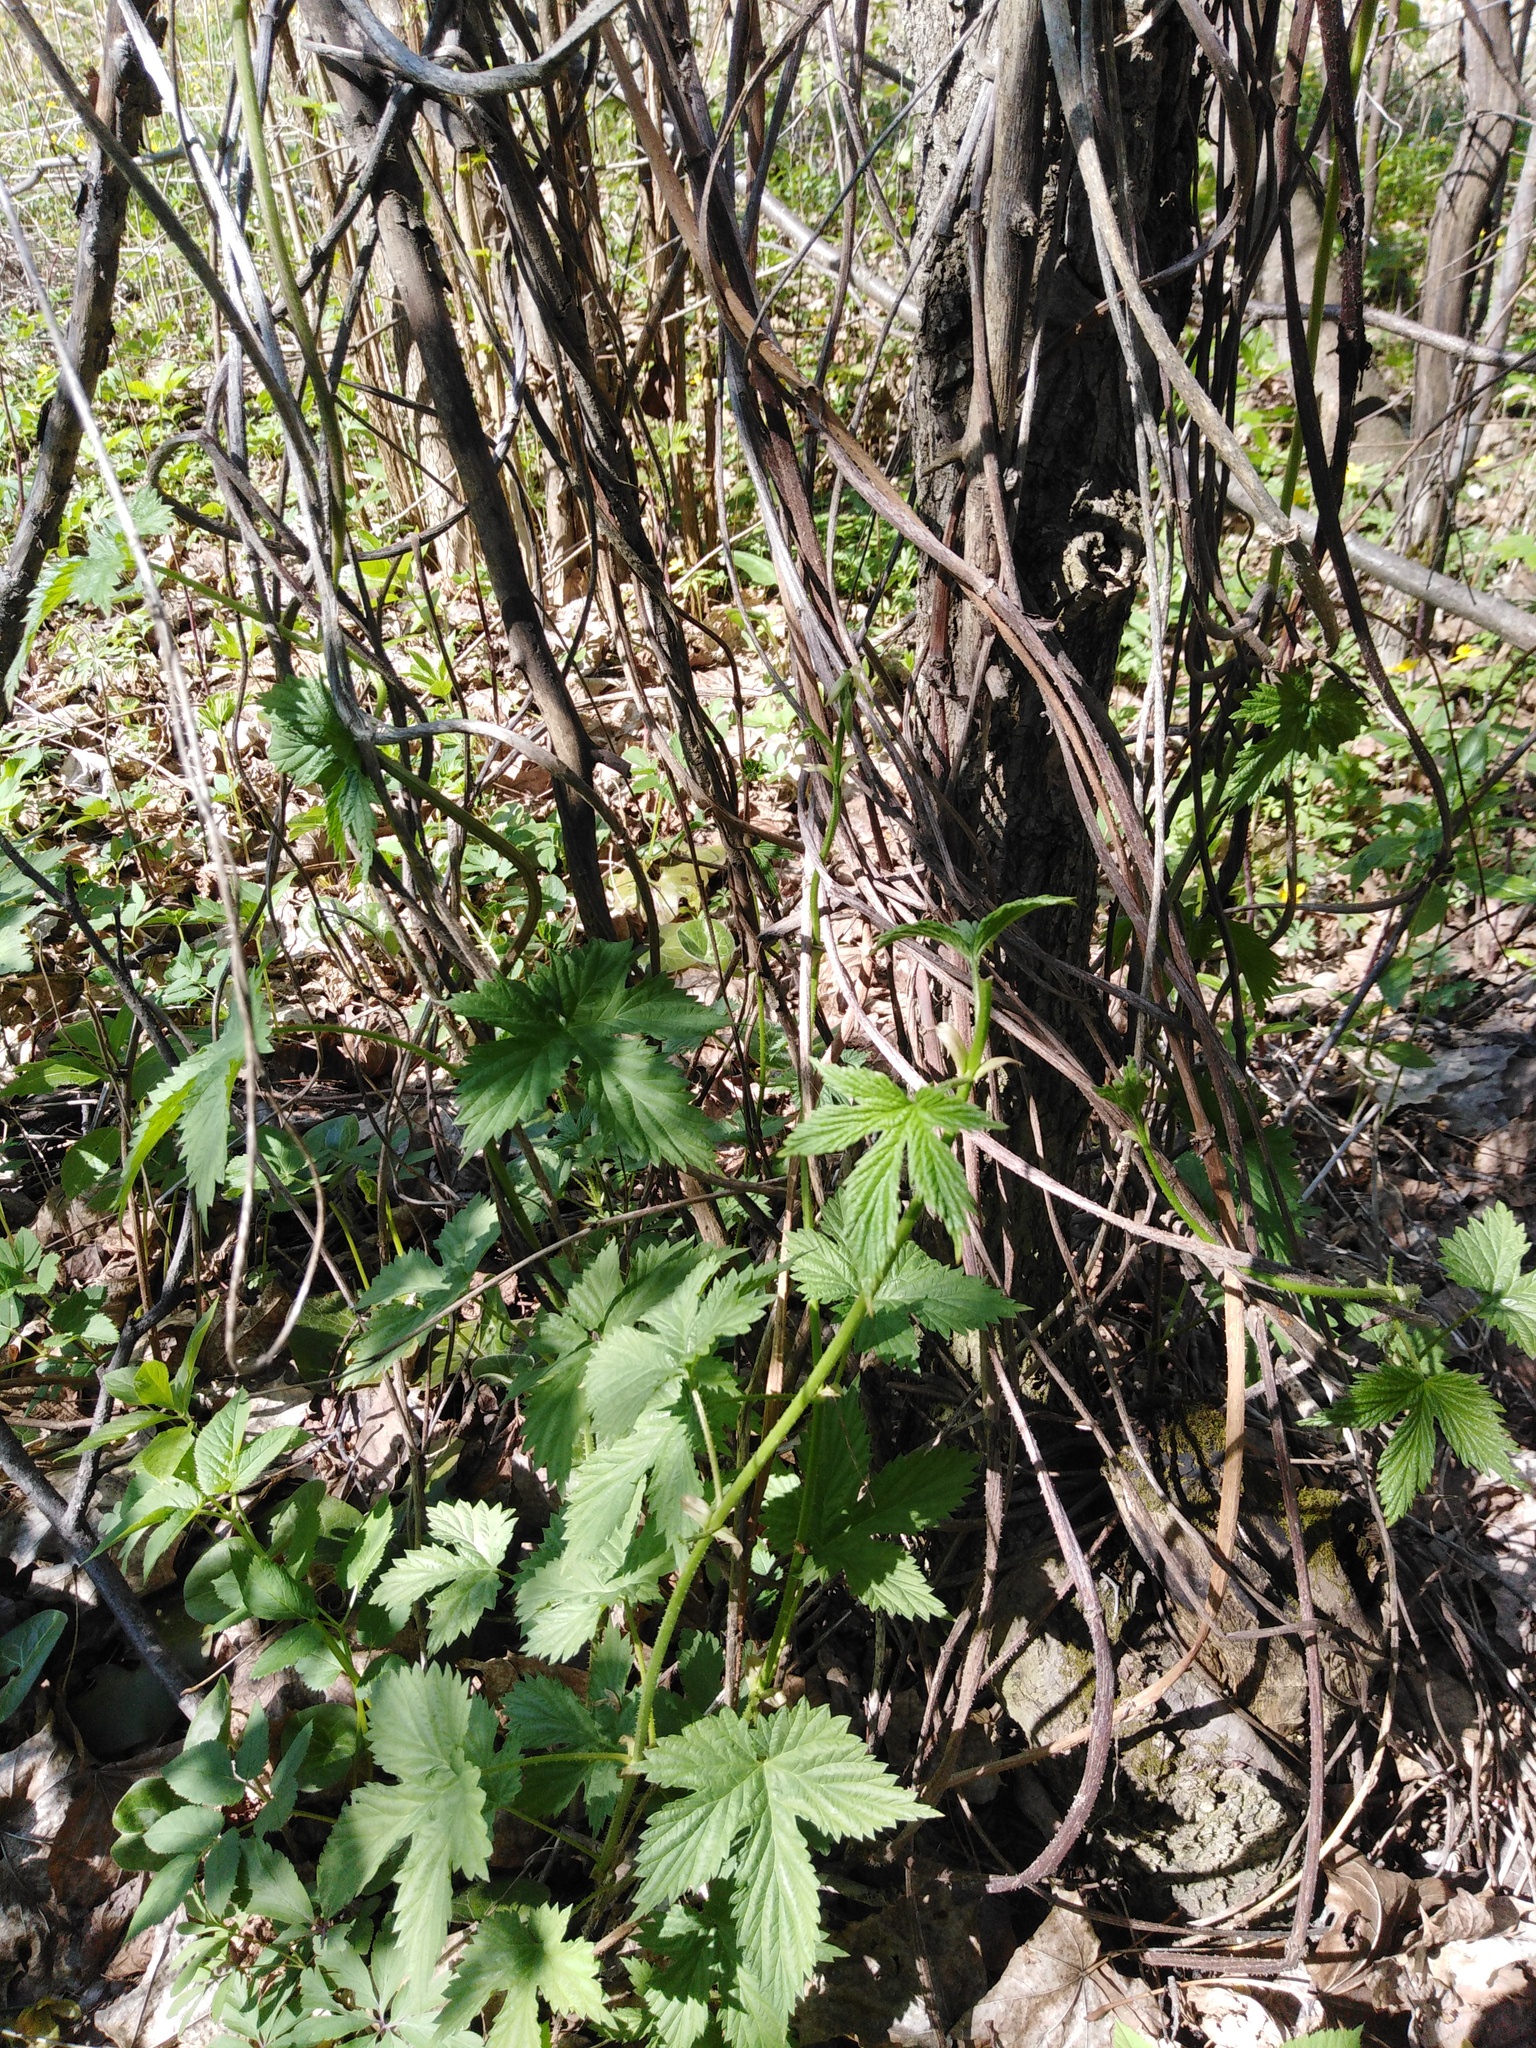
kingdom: Plantae
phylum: Tracheophyta
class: Magnoliopsida
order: Rosales
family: Cannabaceae
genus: Humulus
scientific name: Humulus lupulus
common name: Hop
